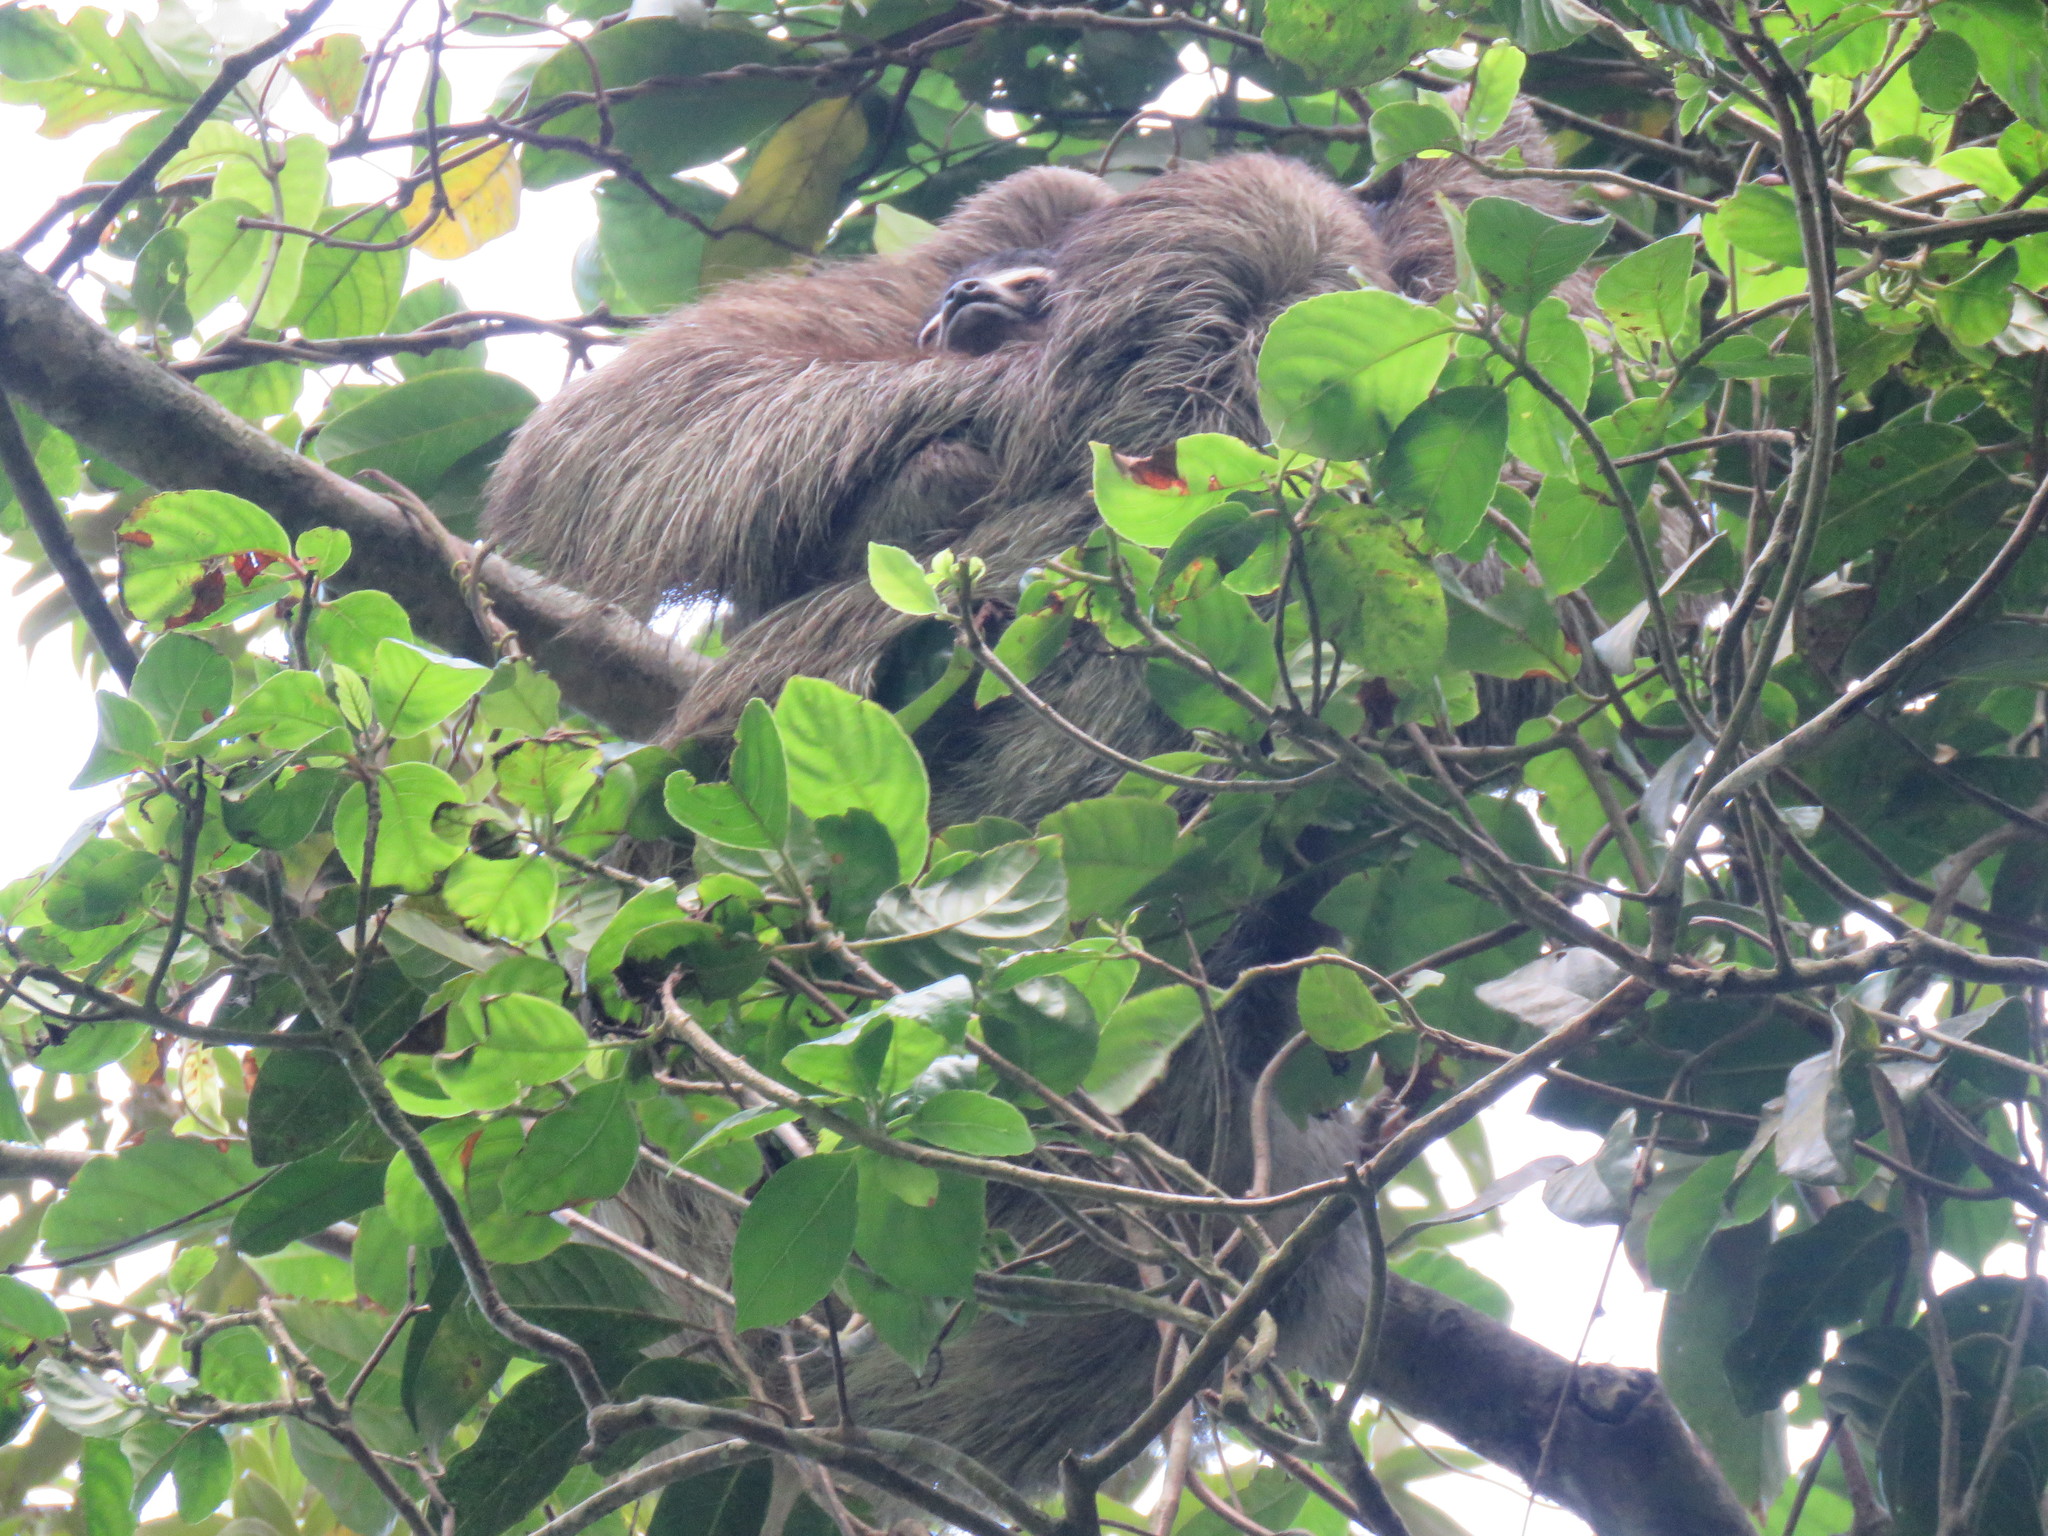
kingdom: Animalia
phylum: Chordata
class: Mammalia
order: Pilosa
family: Bradypodidae
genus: Bradypus
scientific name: Bradypus variegatus
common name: Brown-throated three-toed sloth
